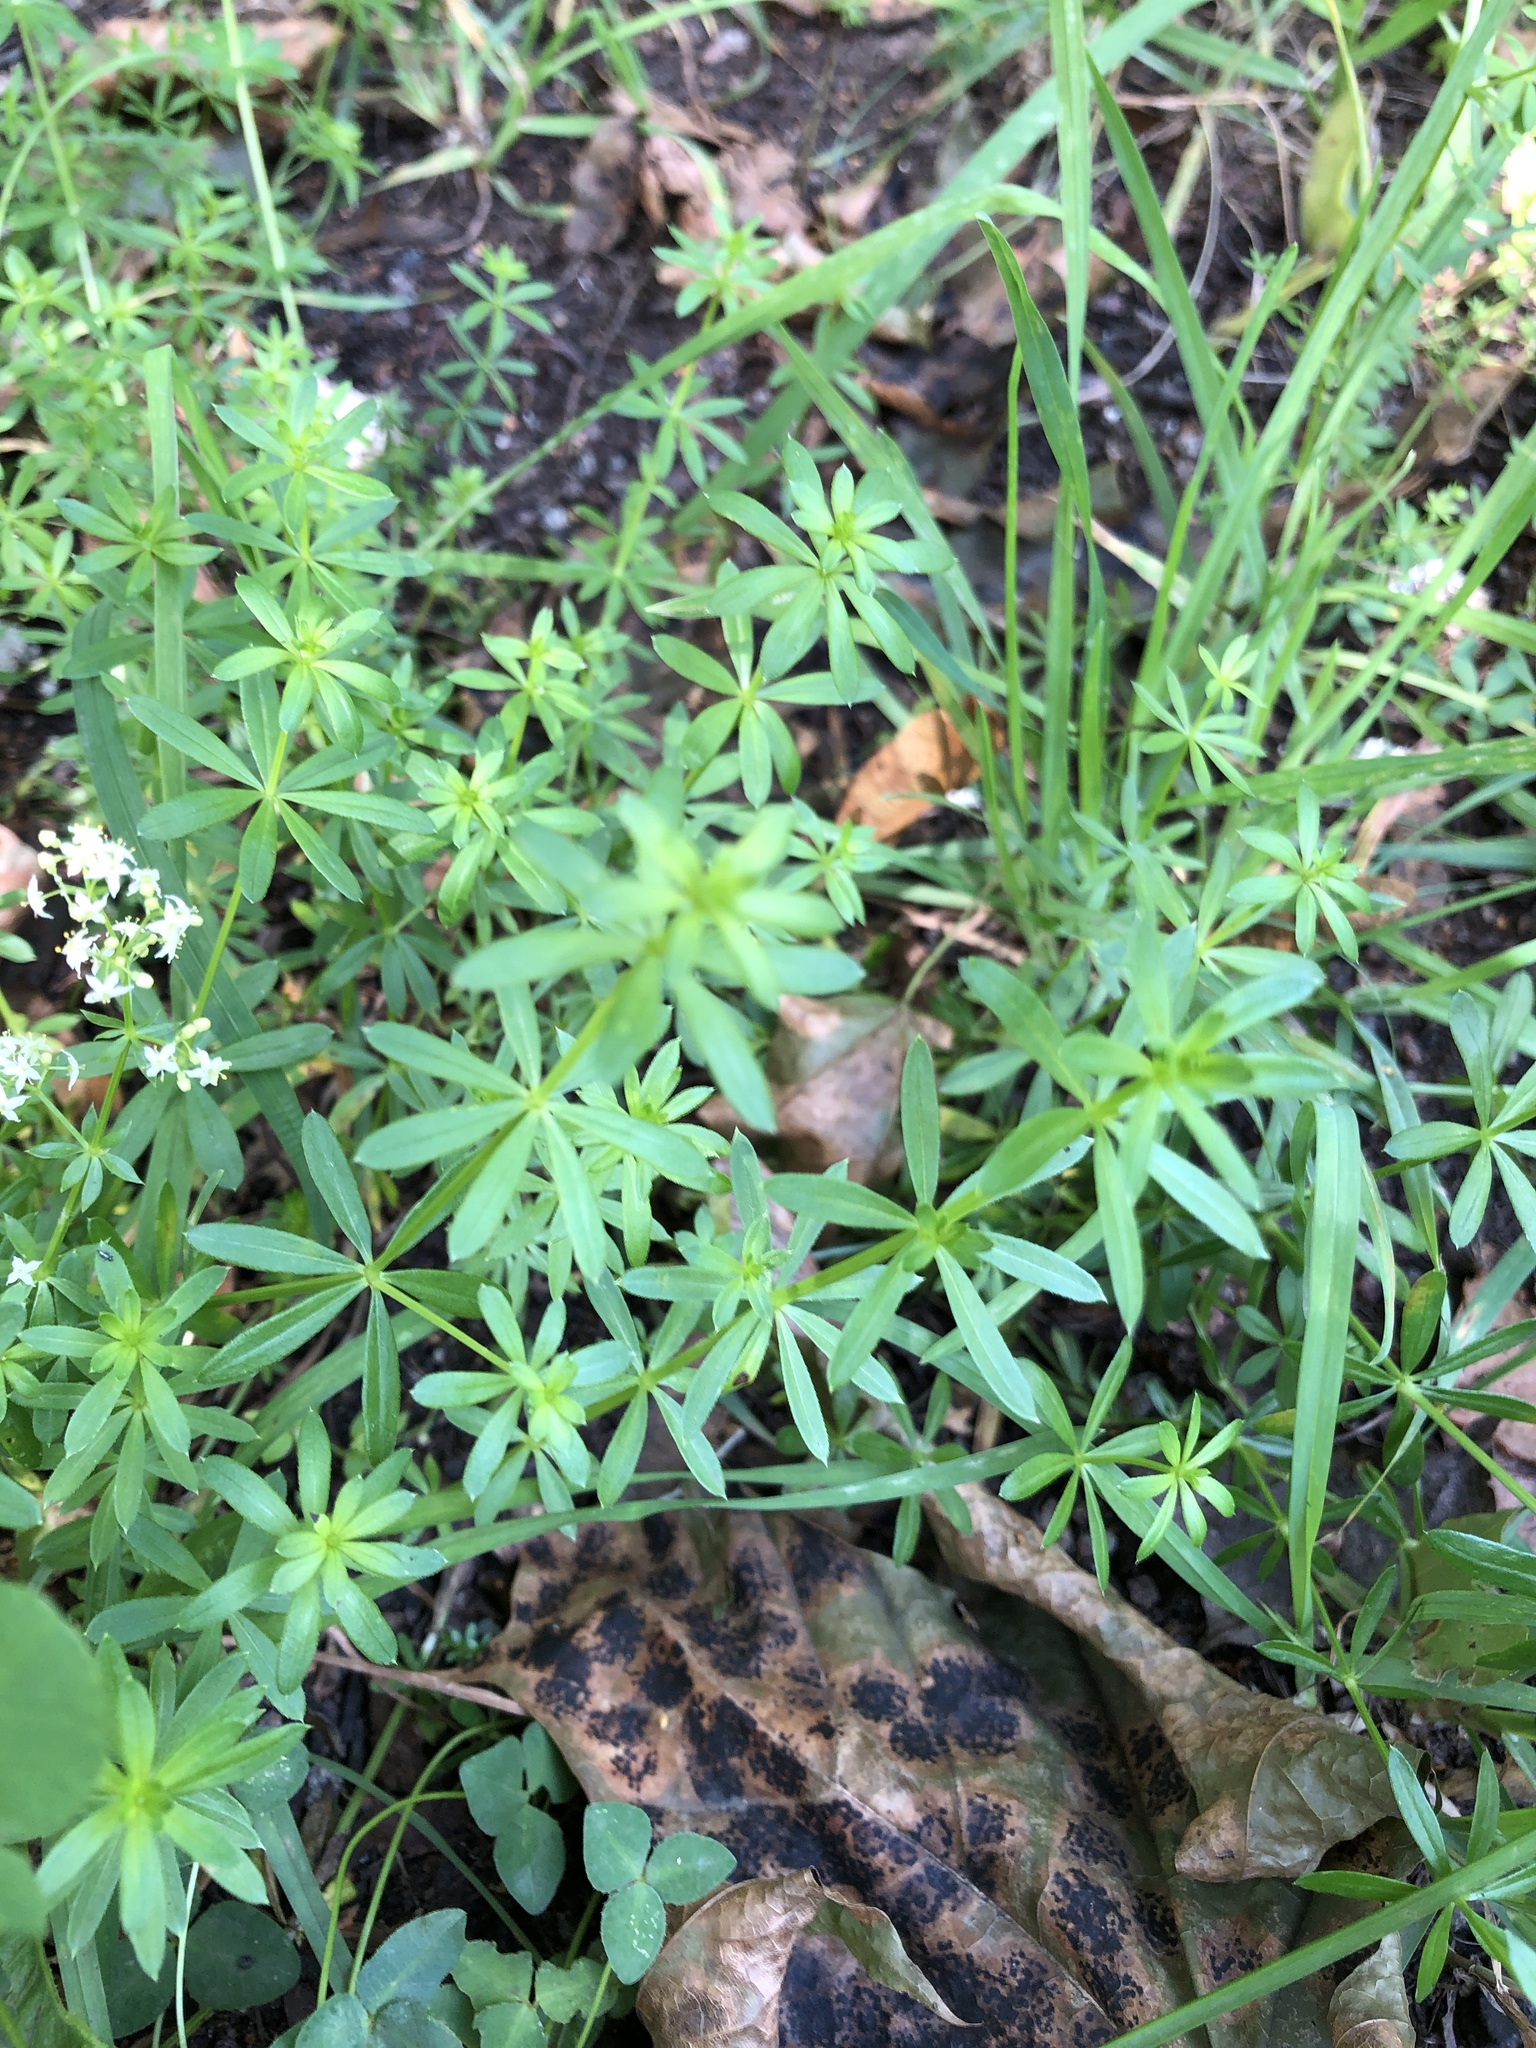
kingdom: Plantae
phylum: Tracheophyta
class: Magnoliopsida
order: Gentianales
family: Rubiaceae
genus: Galium
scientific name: Galium mollugo
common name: Hedge bedstraw
